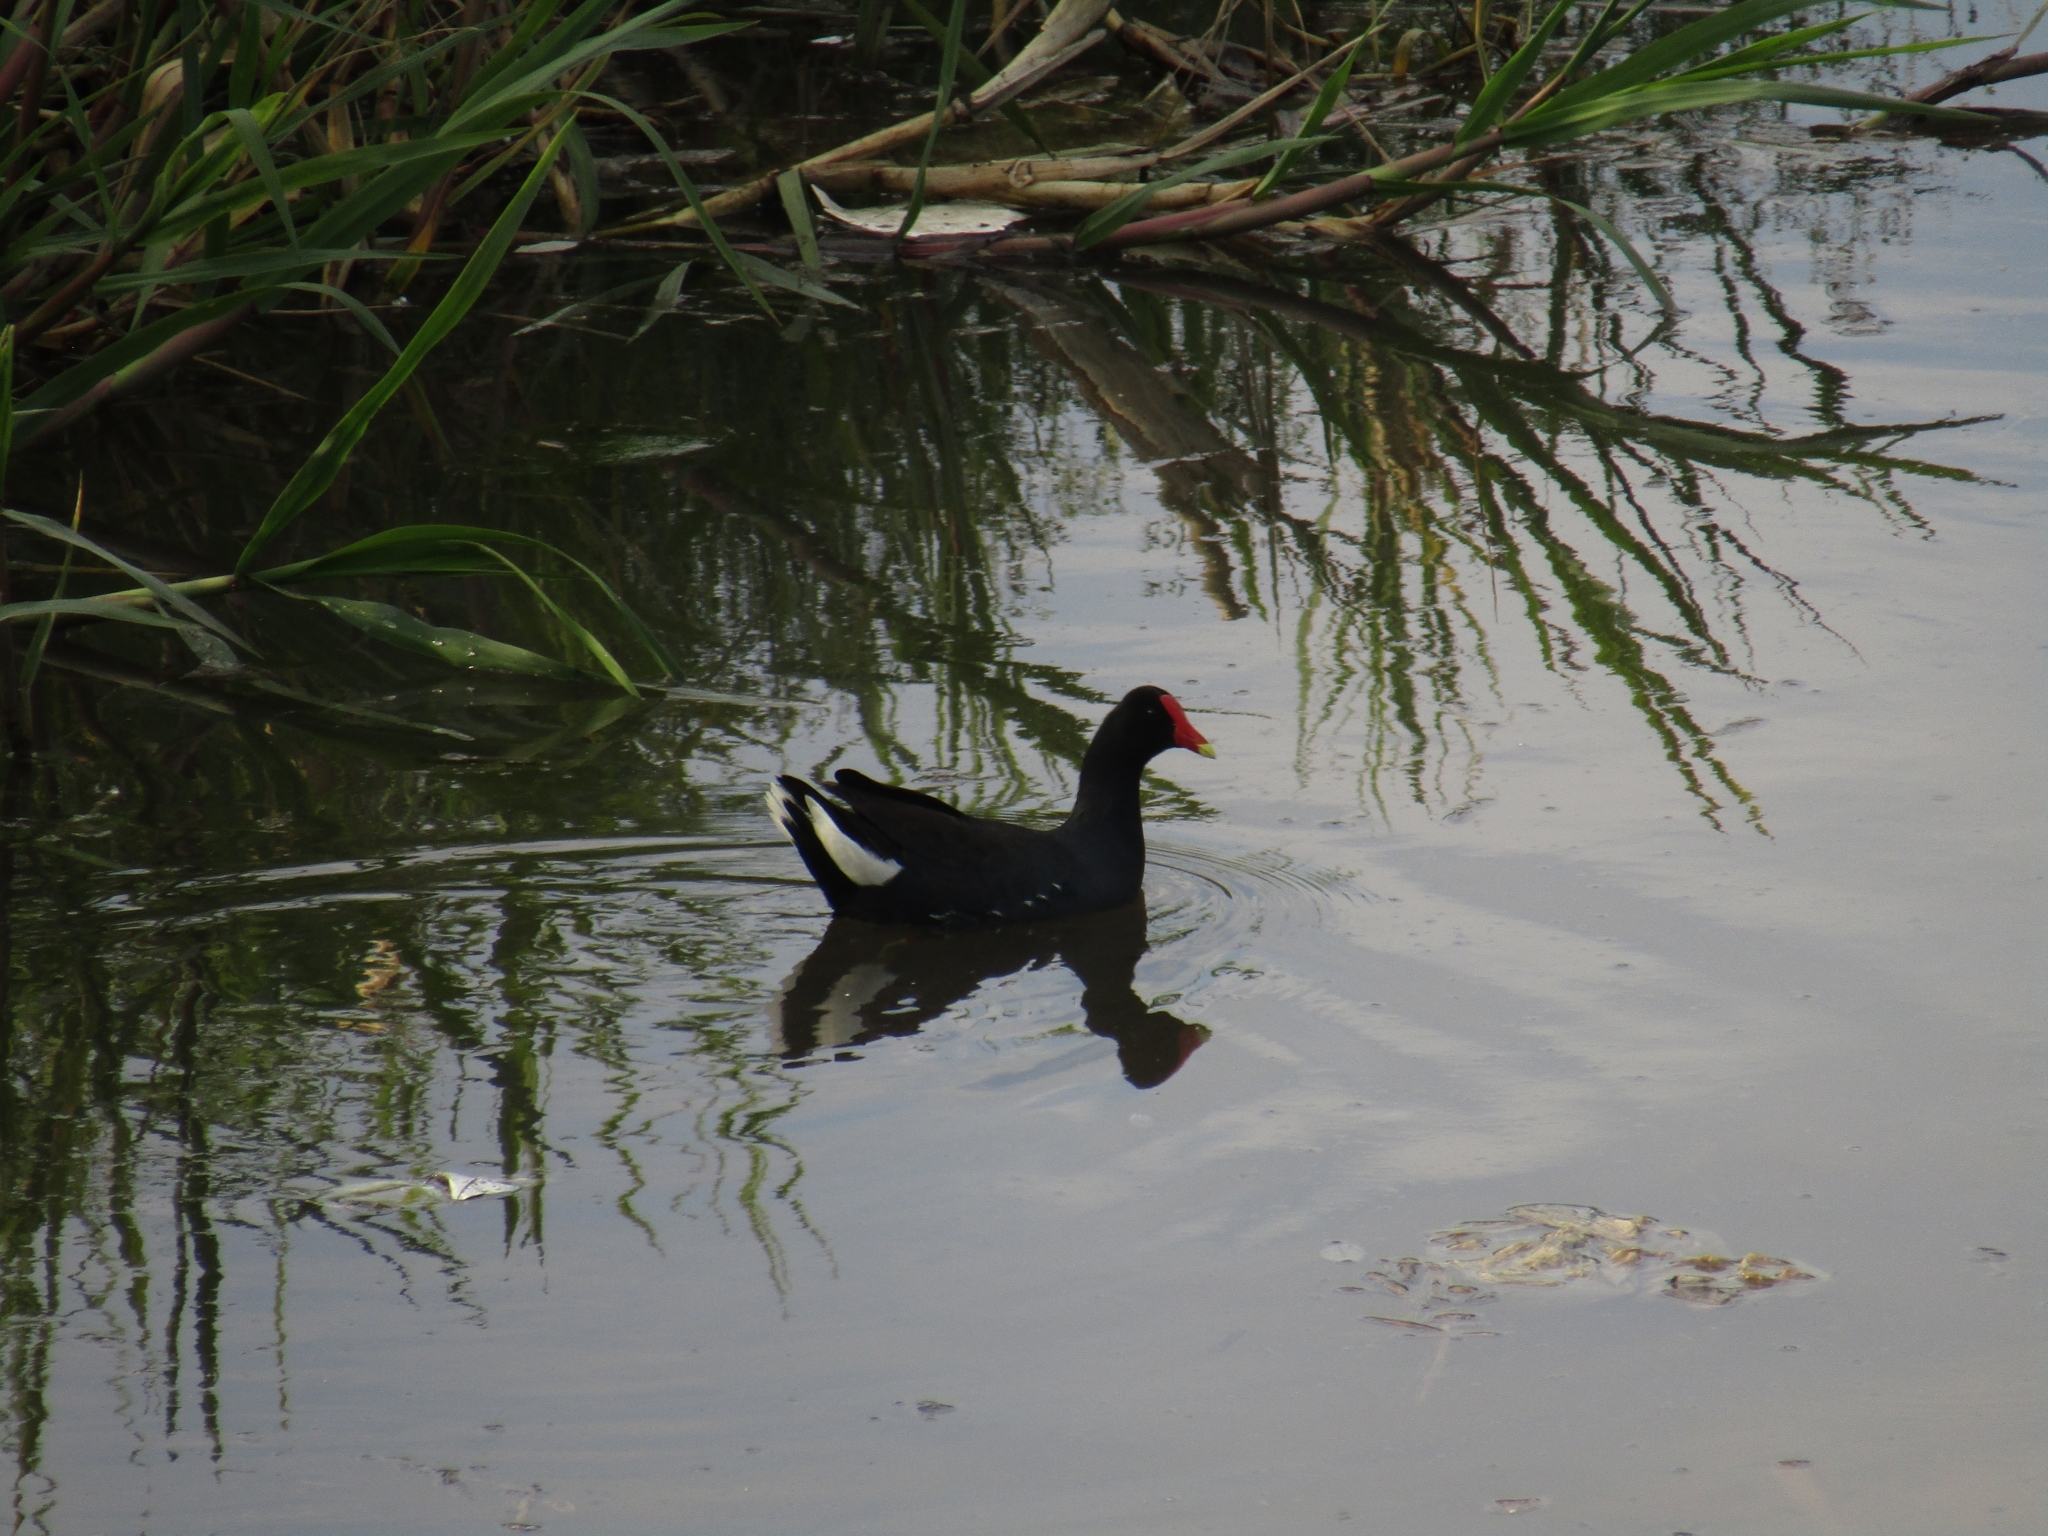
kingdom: Animalia
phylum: Chordata
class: Aves
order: Gruiformes
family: Rallidae
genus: Gallinula
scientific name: Gallinula chloropus
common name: Common moorhen
